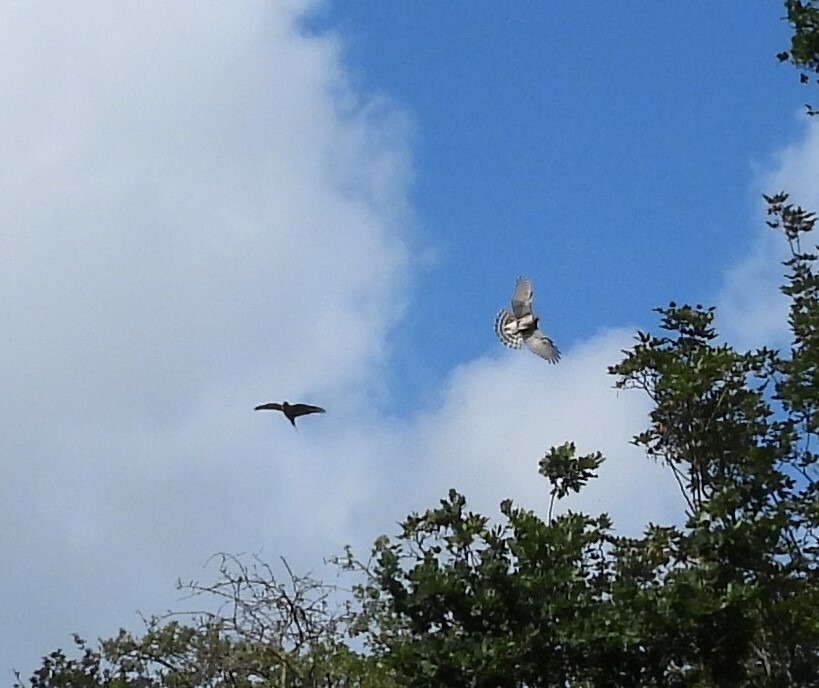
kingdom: Animalia
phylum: Chordata
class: Aves
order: Accipitriformes
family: Accipitridae
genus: Accipiter
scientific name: Accipiter nisus
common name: Eurasian sparrowhawk
